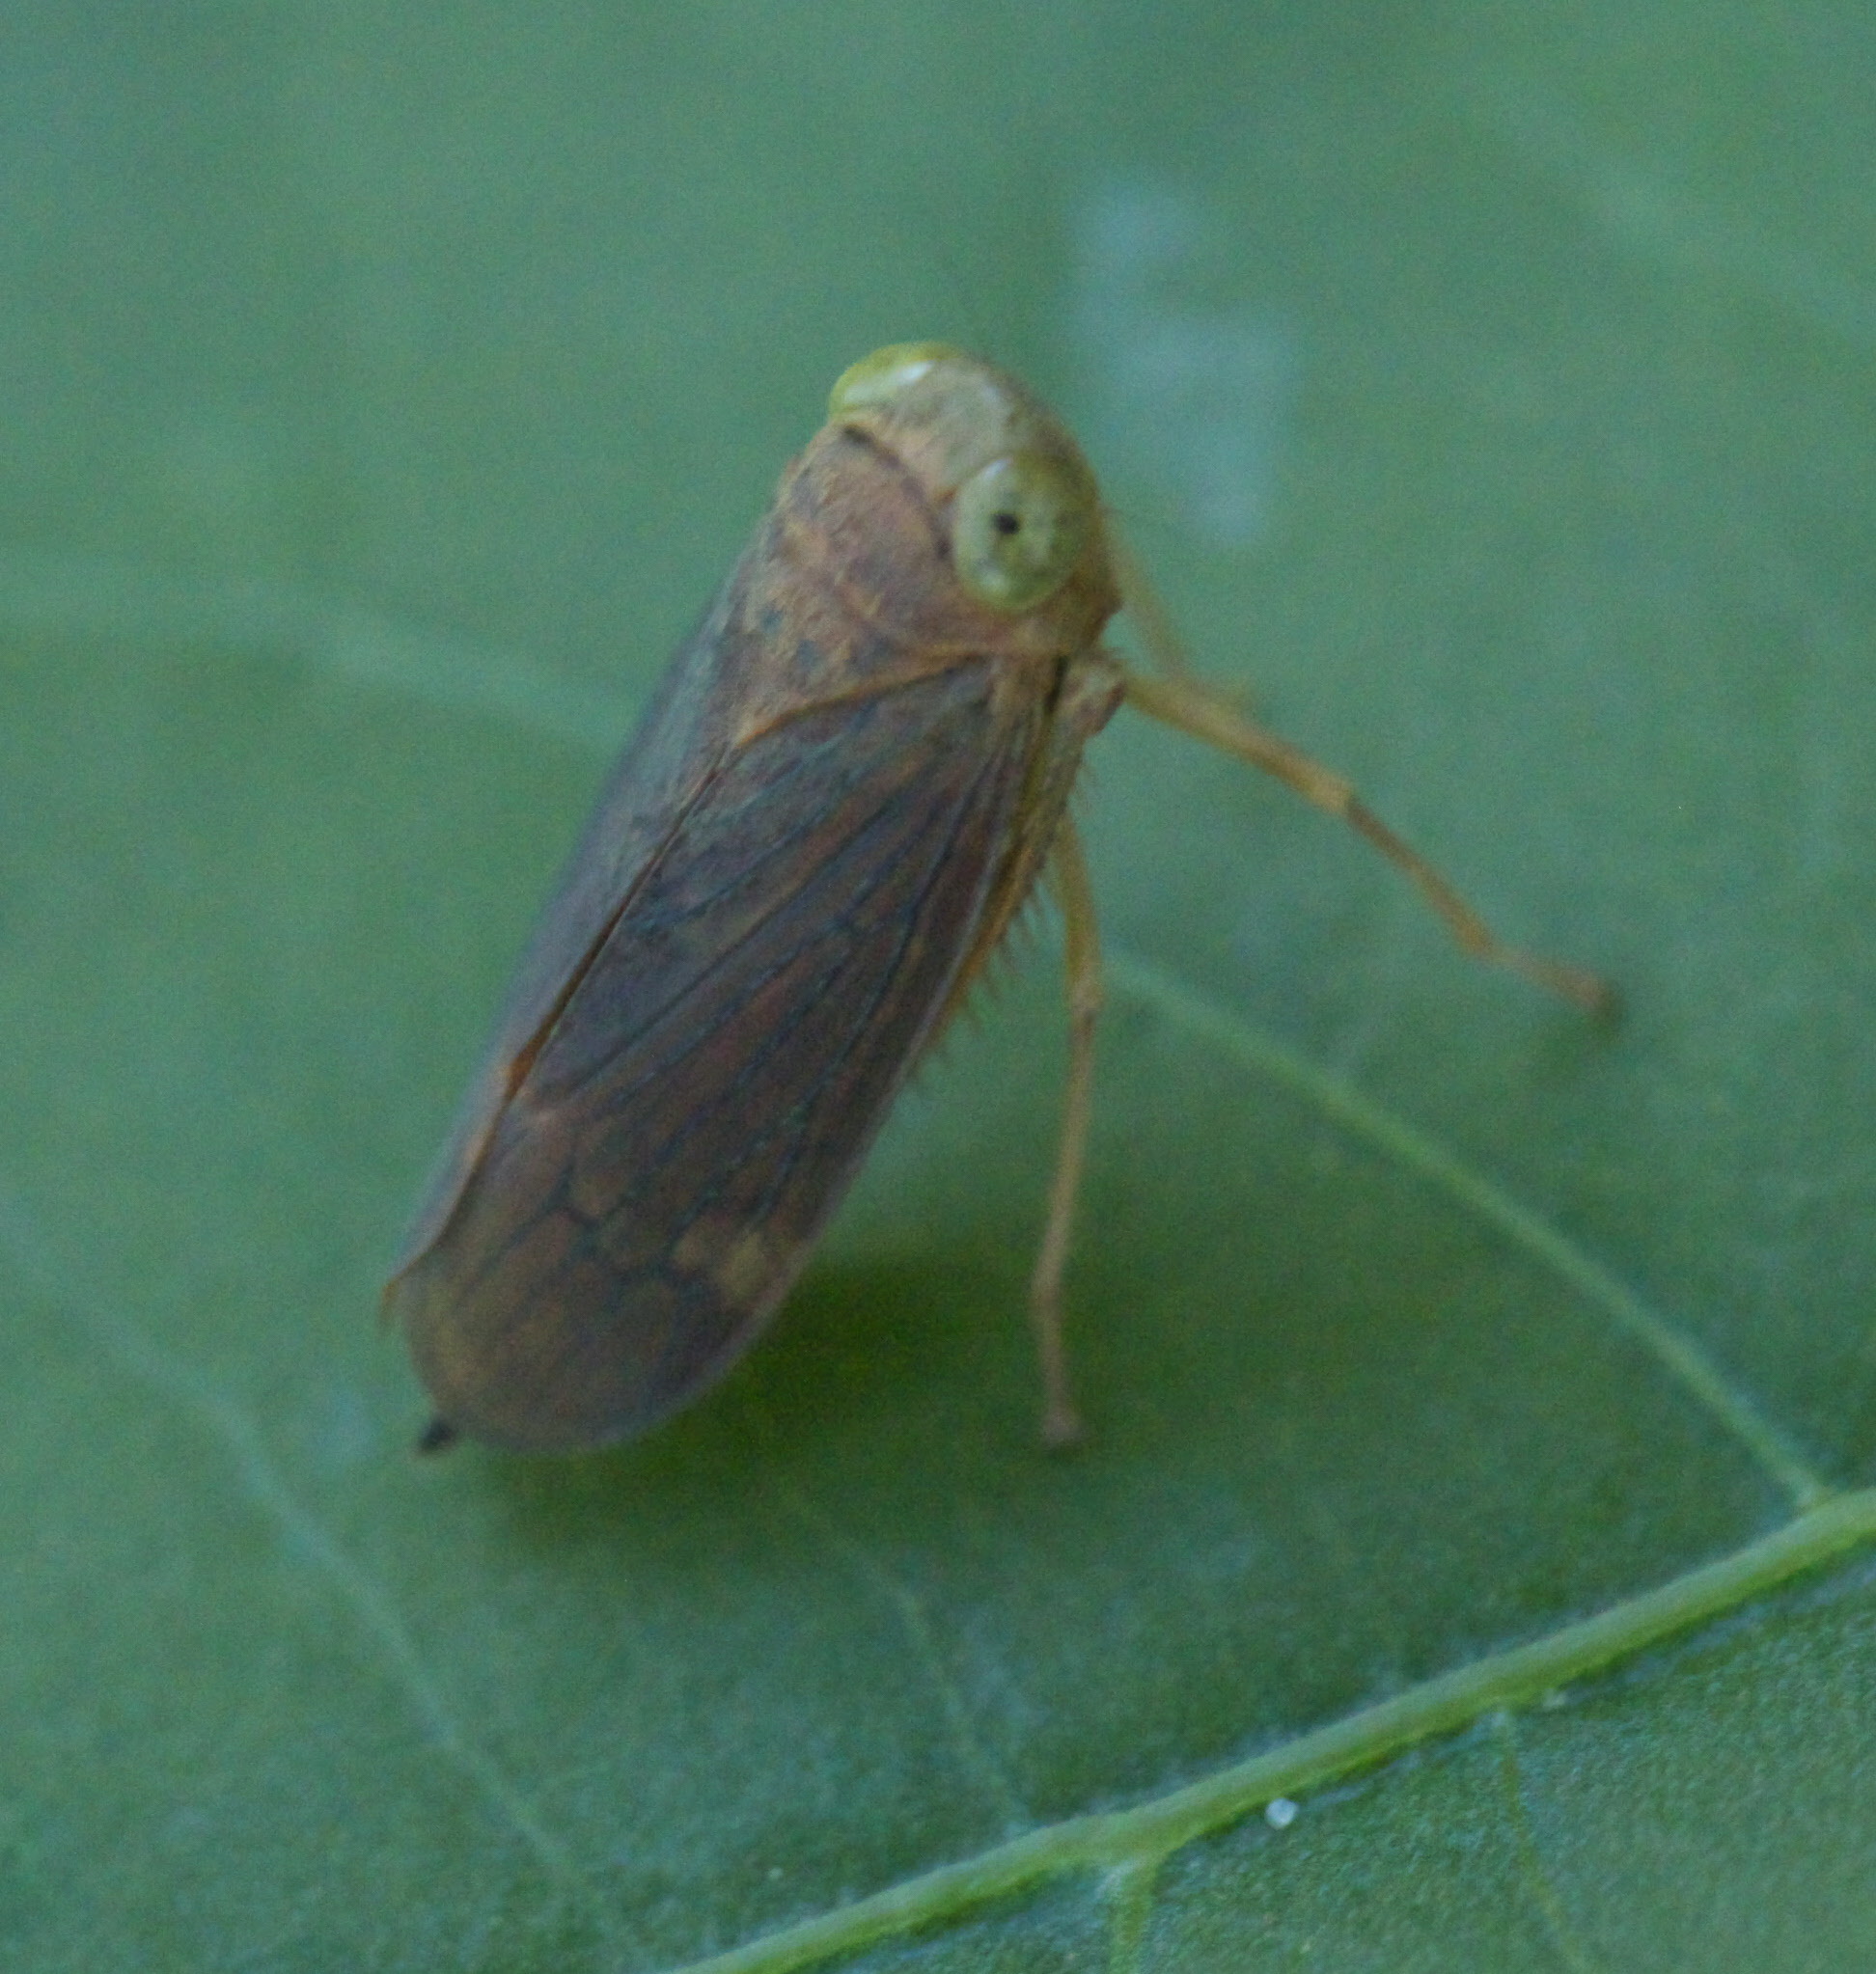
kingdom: Animalia
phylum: Arthropoda
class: Insecta
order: Hemiptera
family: Cicadellidae
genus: Jikradia
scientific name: Jikradia olitoria
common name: Coppery leafhopper
